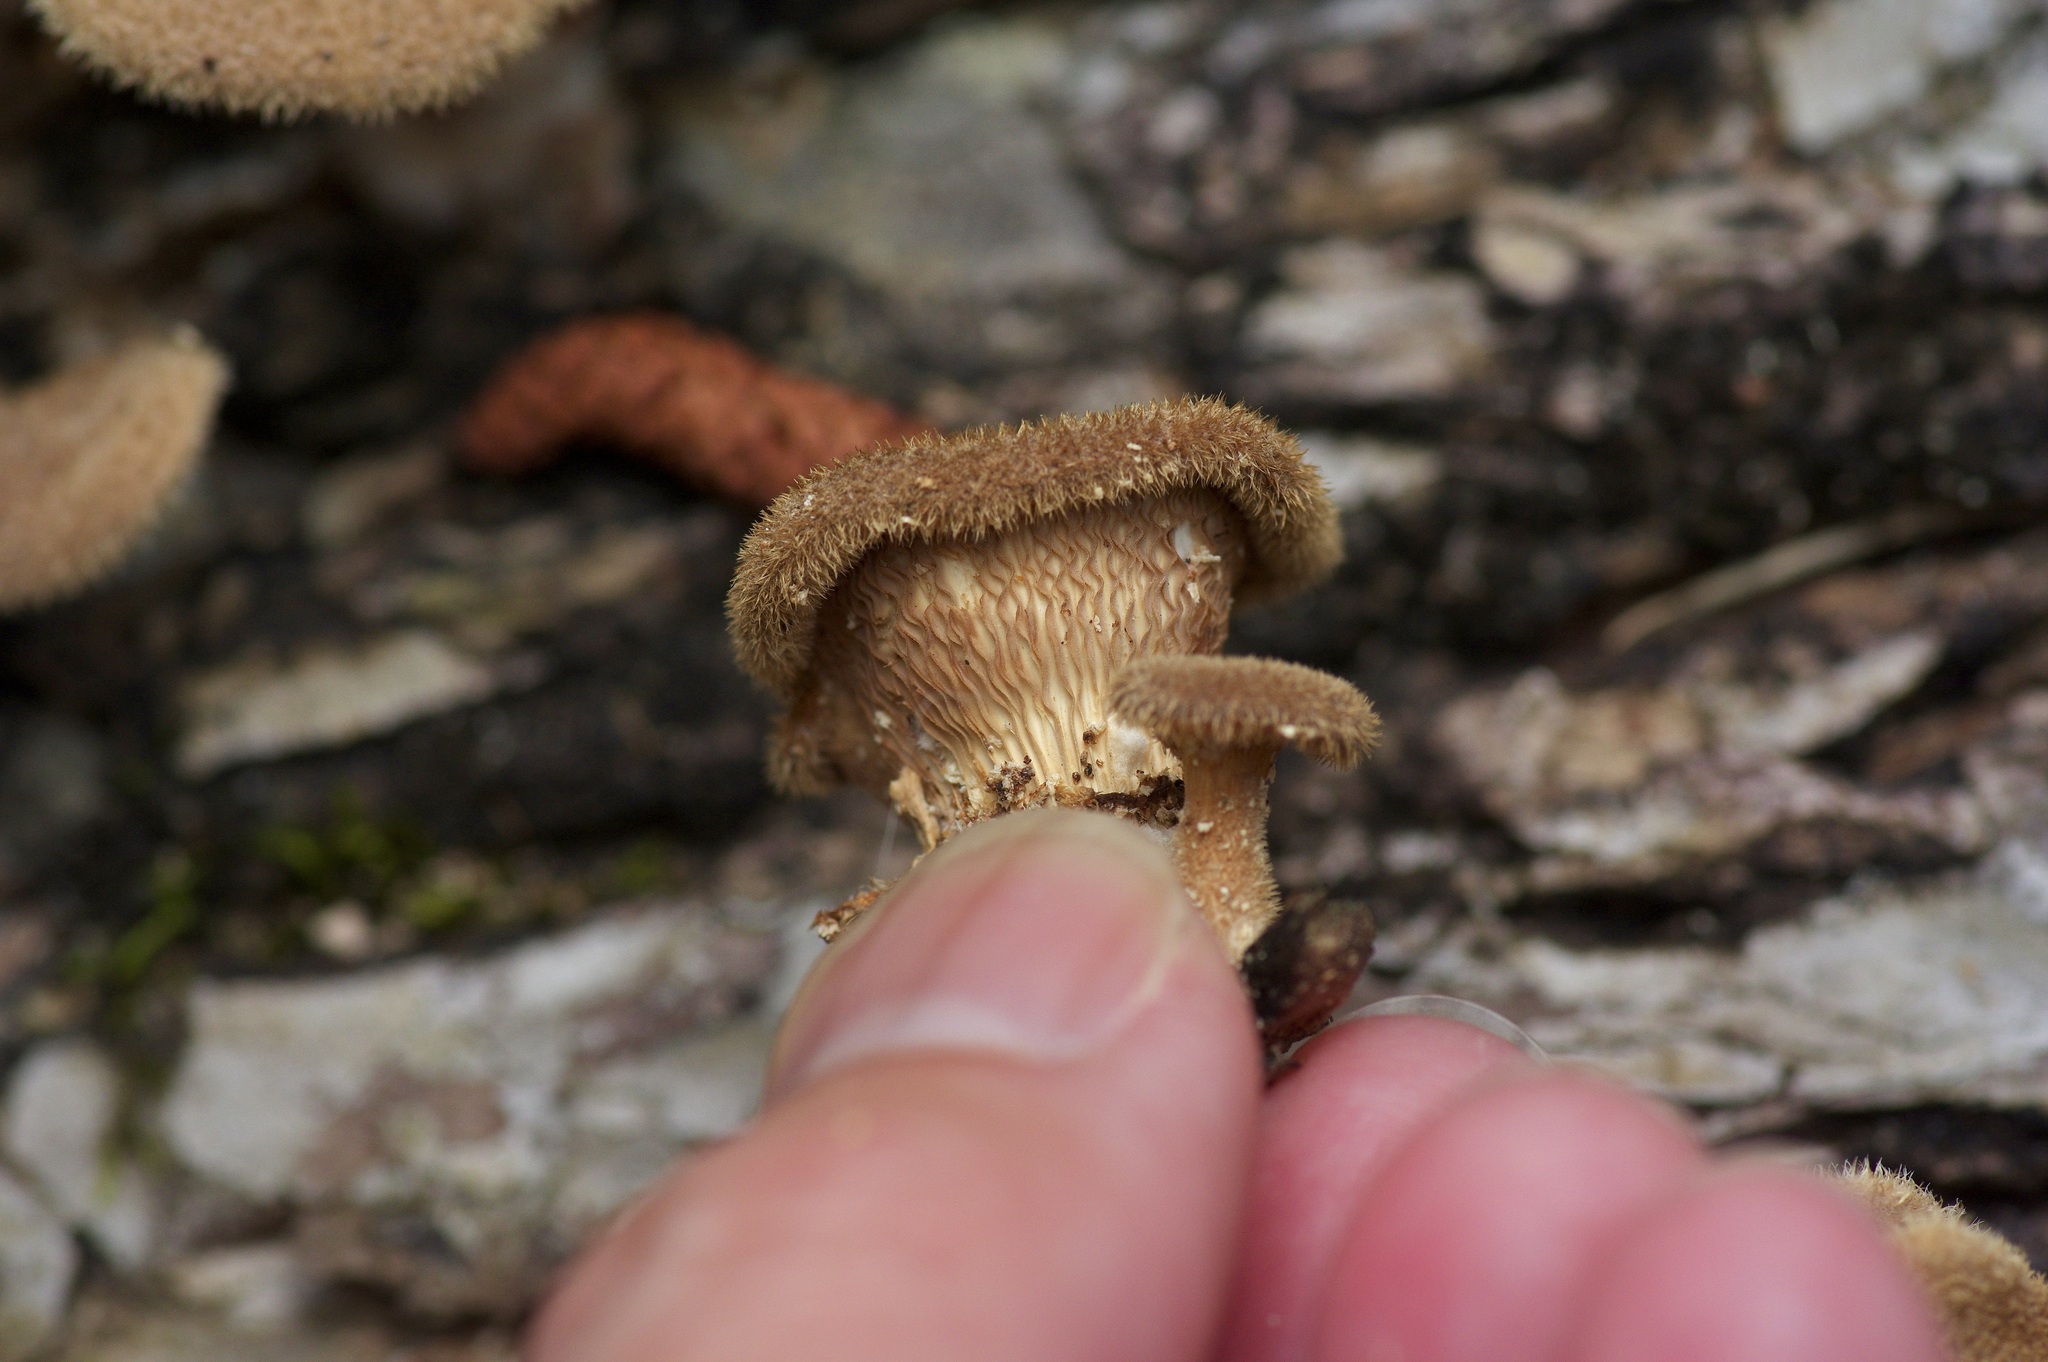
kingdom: Fungi
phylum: Basidiomycota
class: Agaricomycetes
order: Polyporales
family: Panaceae
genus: Panus
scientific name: Panus neostrigosus
